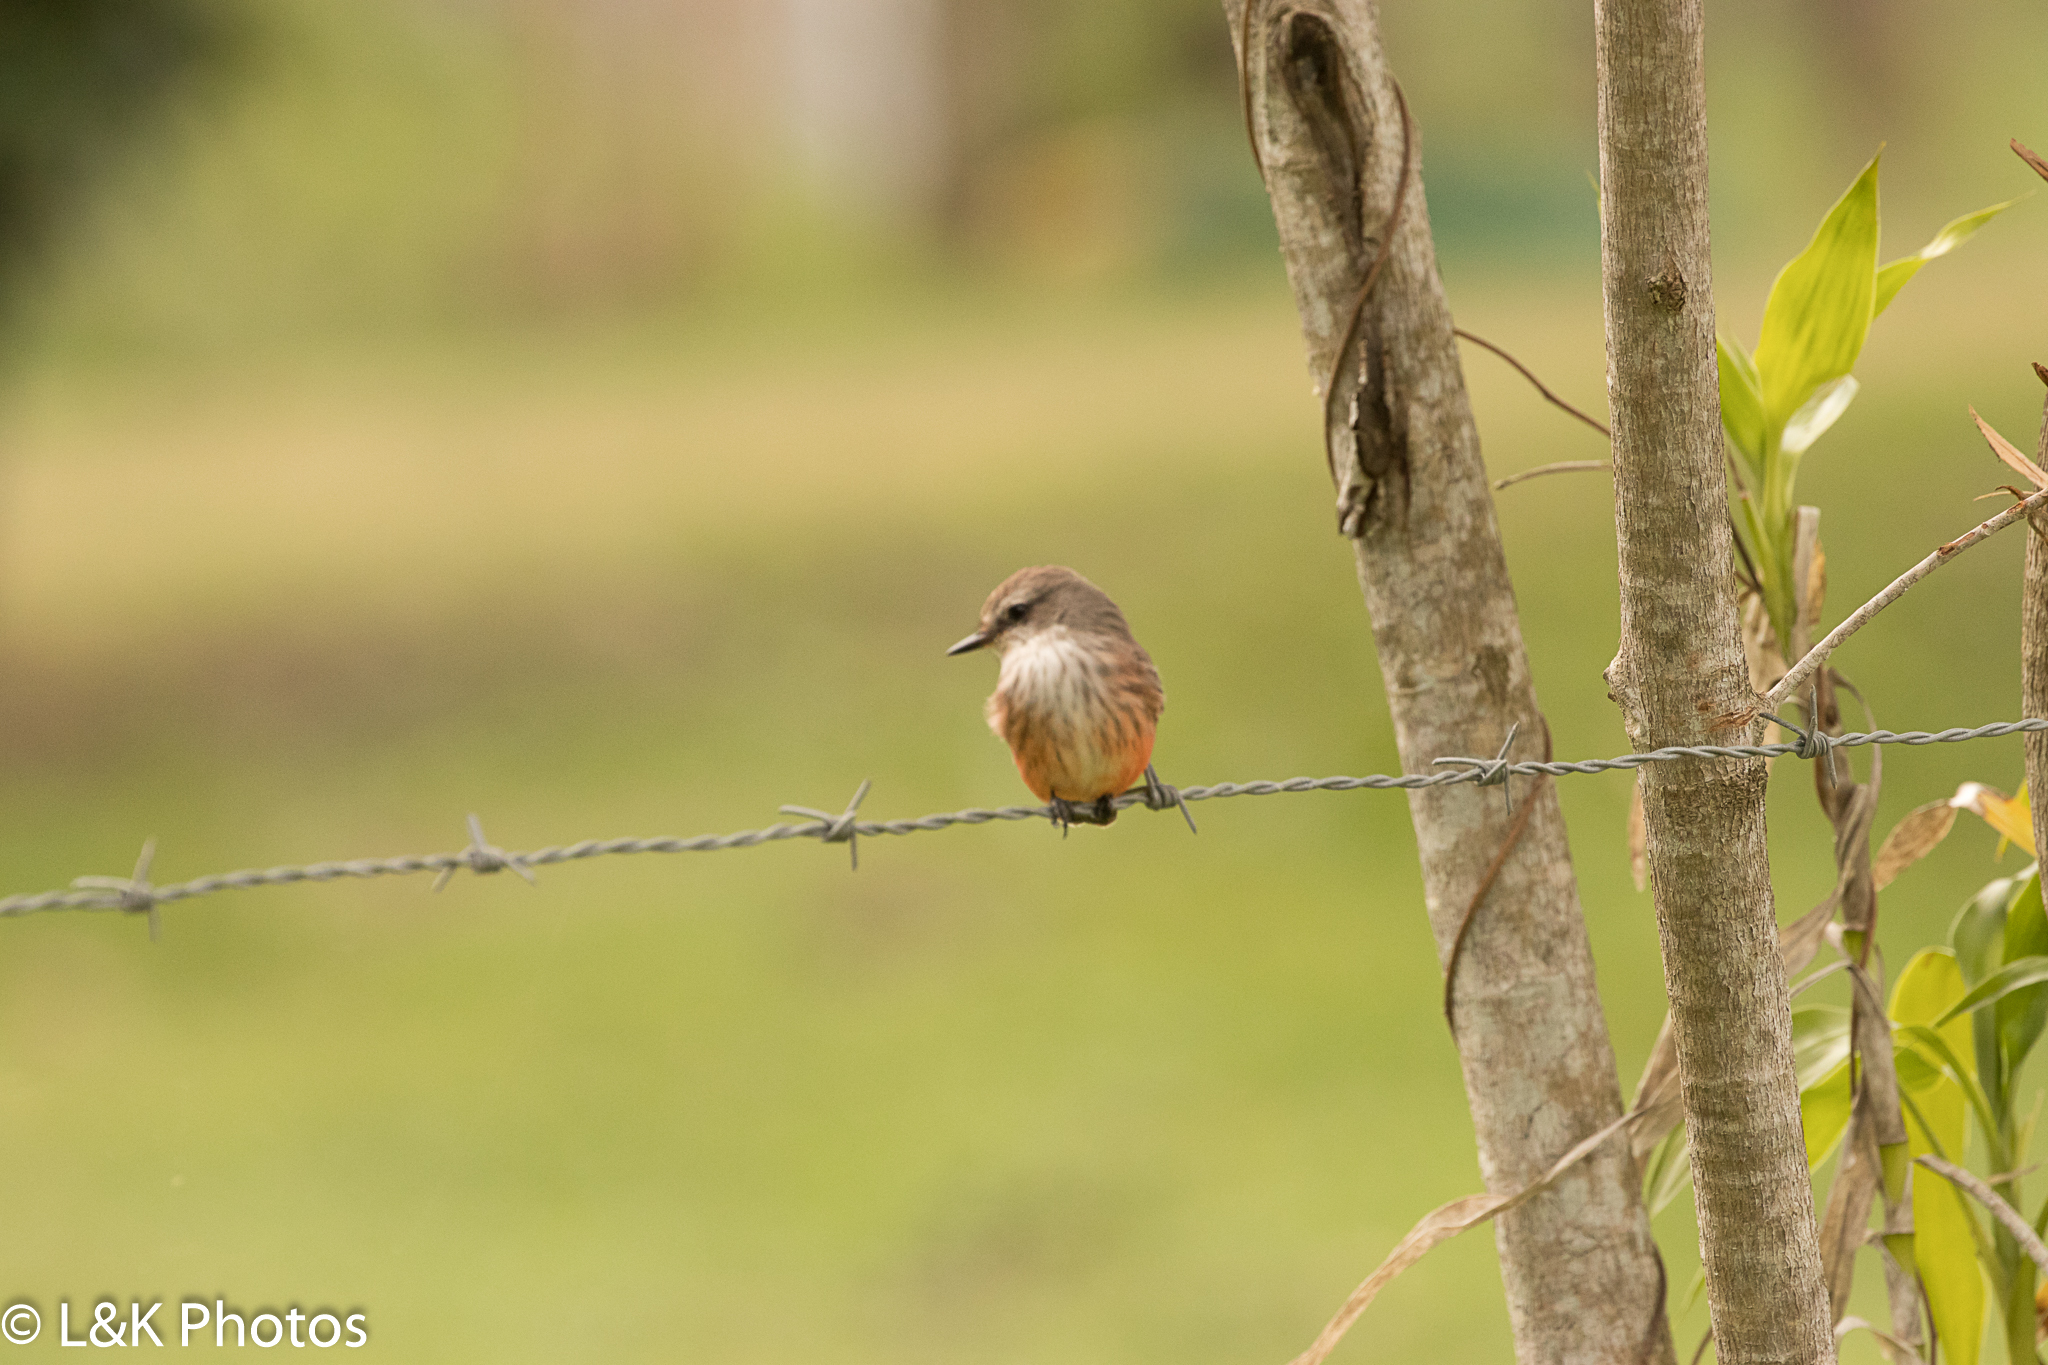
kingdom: Animalia
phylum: Chordata
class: Aves
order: Passeriformes
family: Tyrannidae
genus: Pyrocephalus
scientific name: Pyrocephalus rubinus
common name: Vermilion flycatcher
